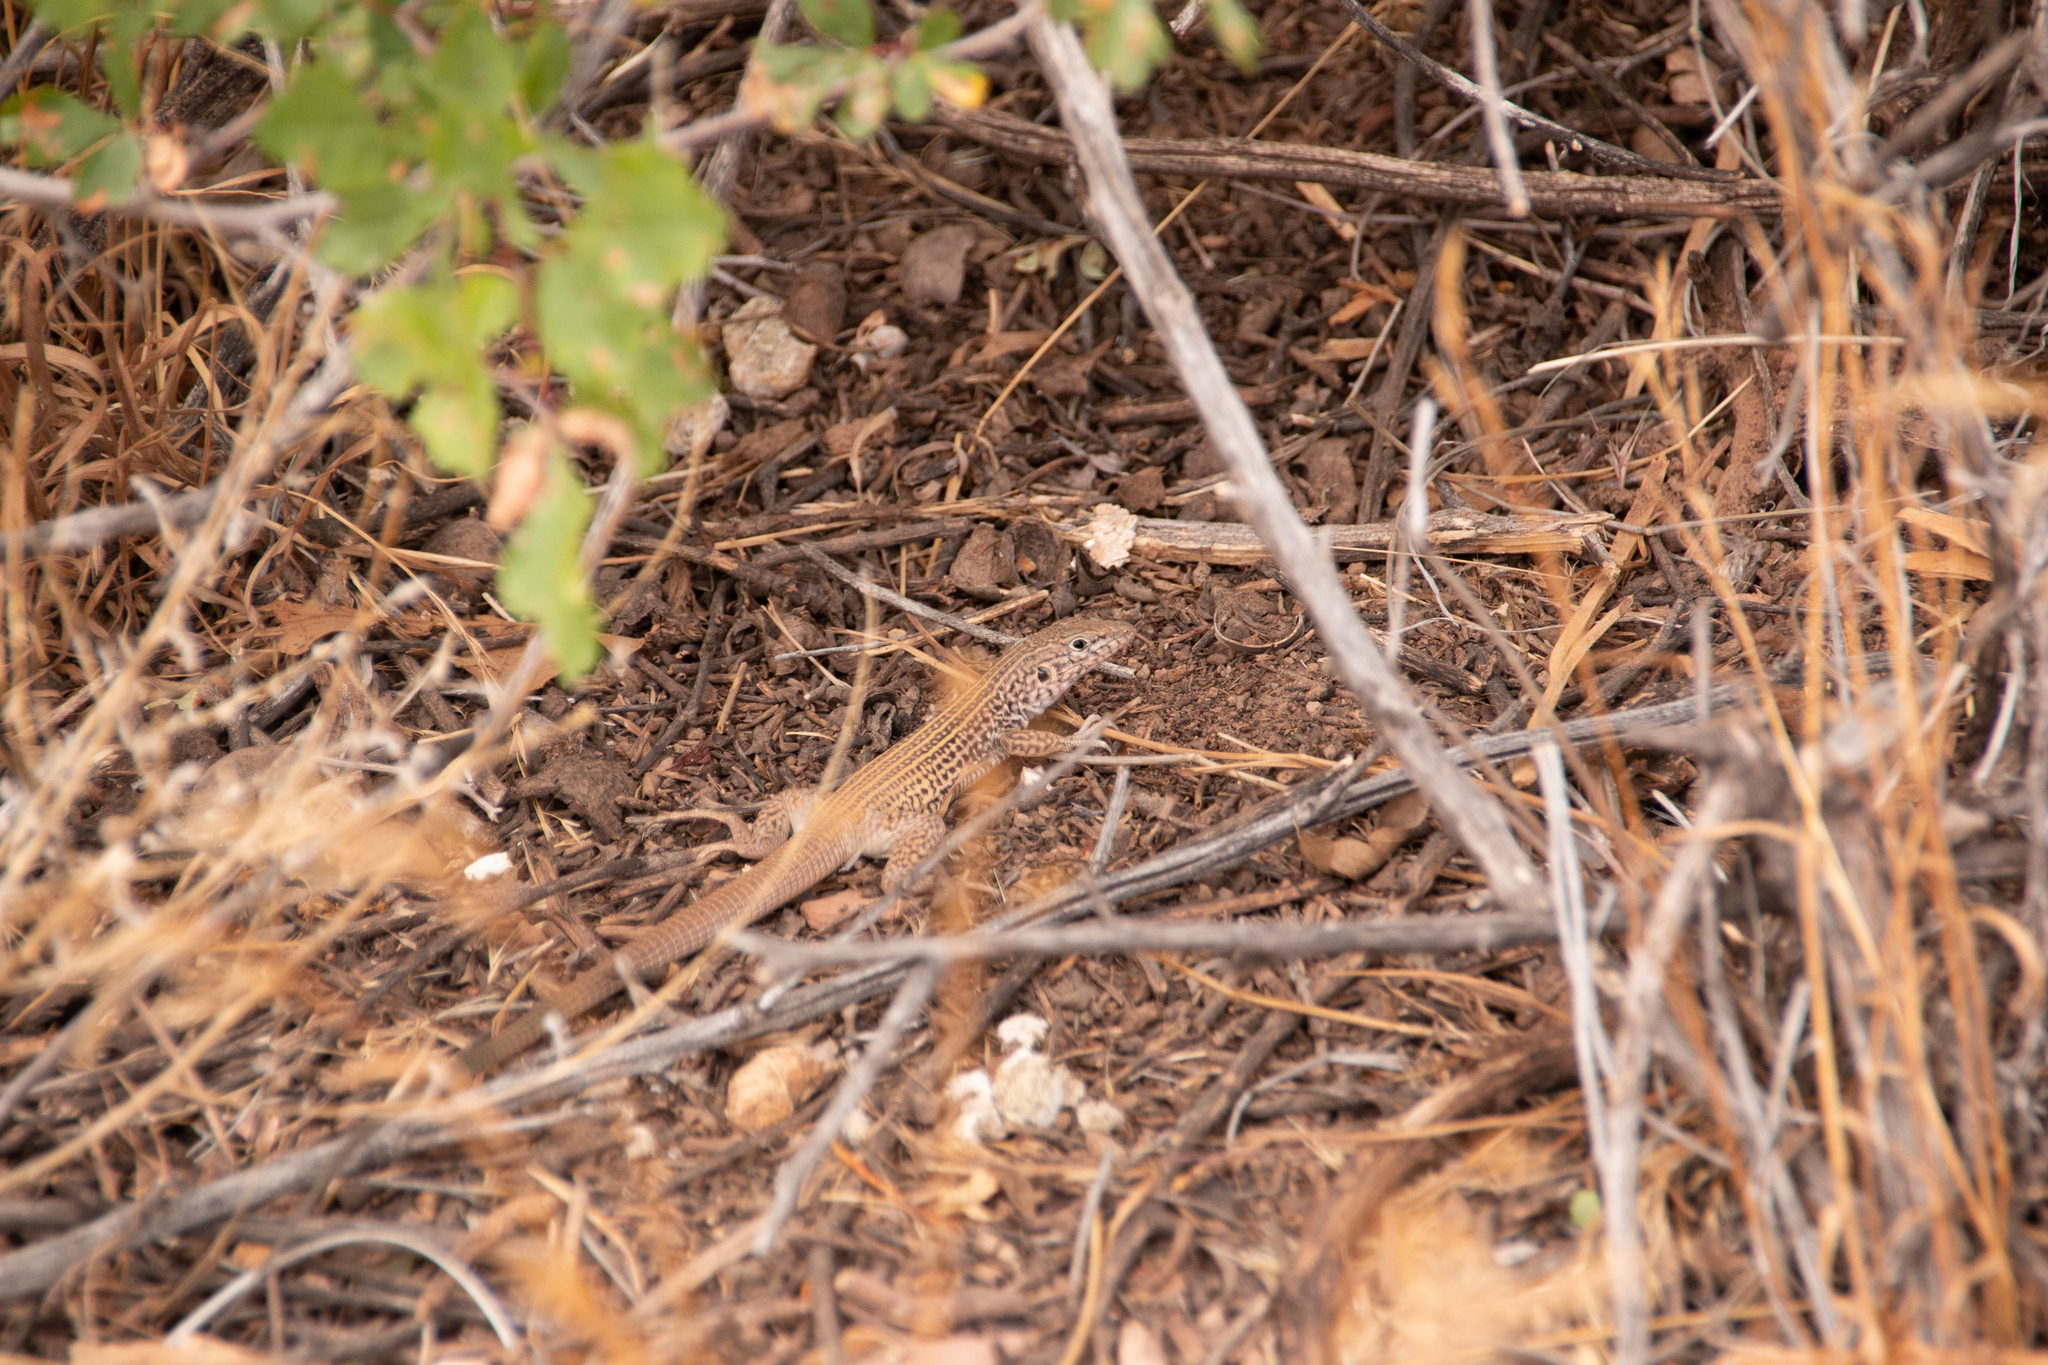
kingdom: Animalia
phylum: Chordata
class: Squamata
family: Teiidae
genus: Aspidoscelis
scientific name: Aspidoscelis tigris
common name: Tiger whiptail
